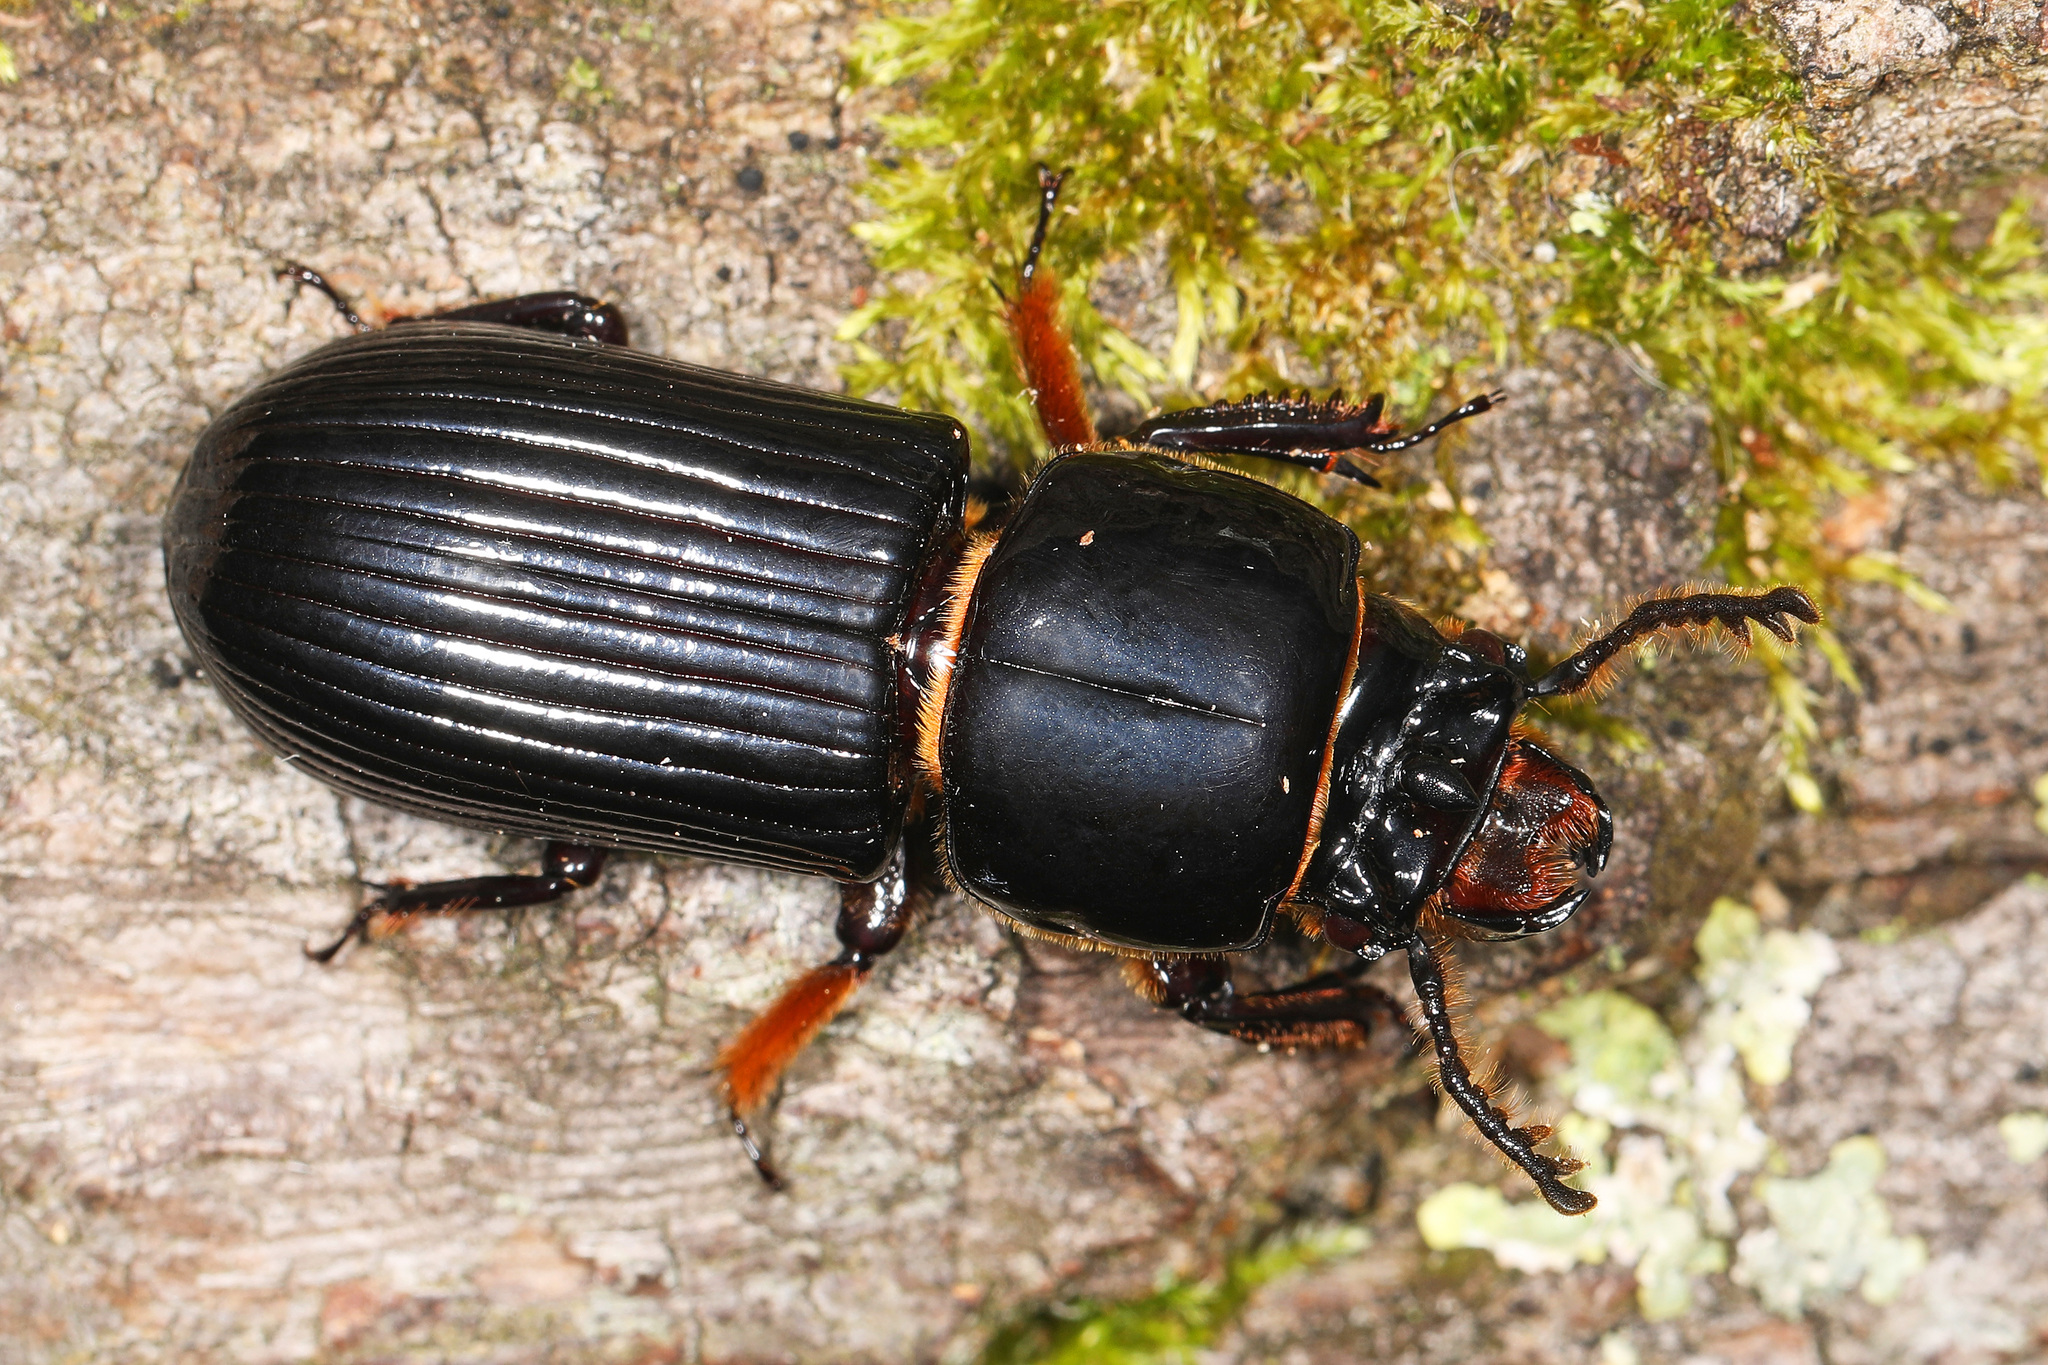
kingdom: Animalia
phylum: Arthropoda
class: Insecta
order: Coleoptera
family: Passalidae
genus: Odontotaenius
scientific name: Odontotaenius disjunctus
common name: Patent leather beetle
